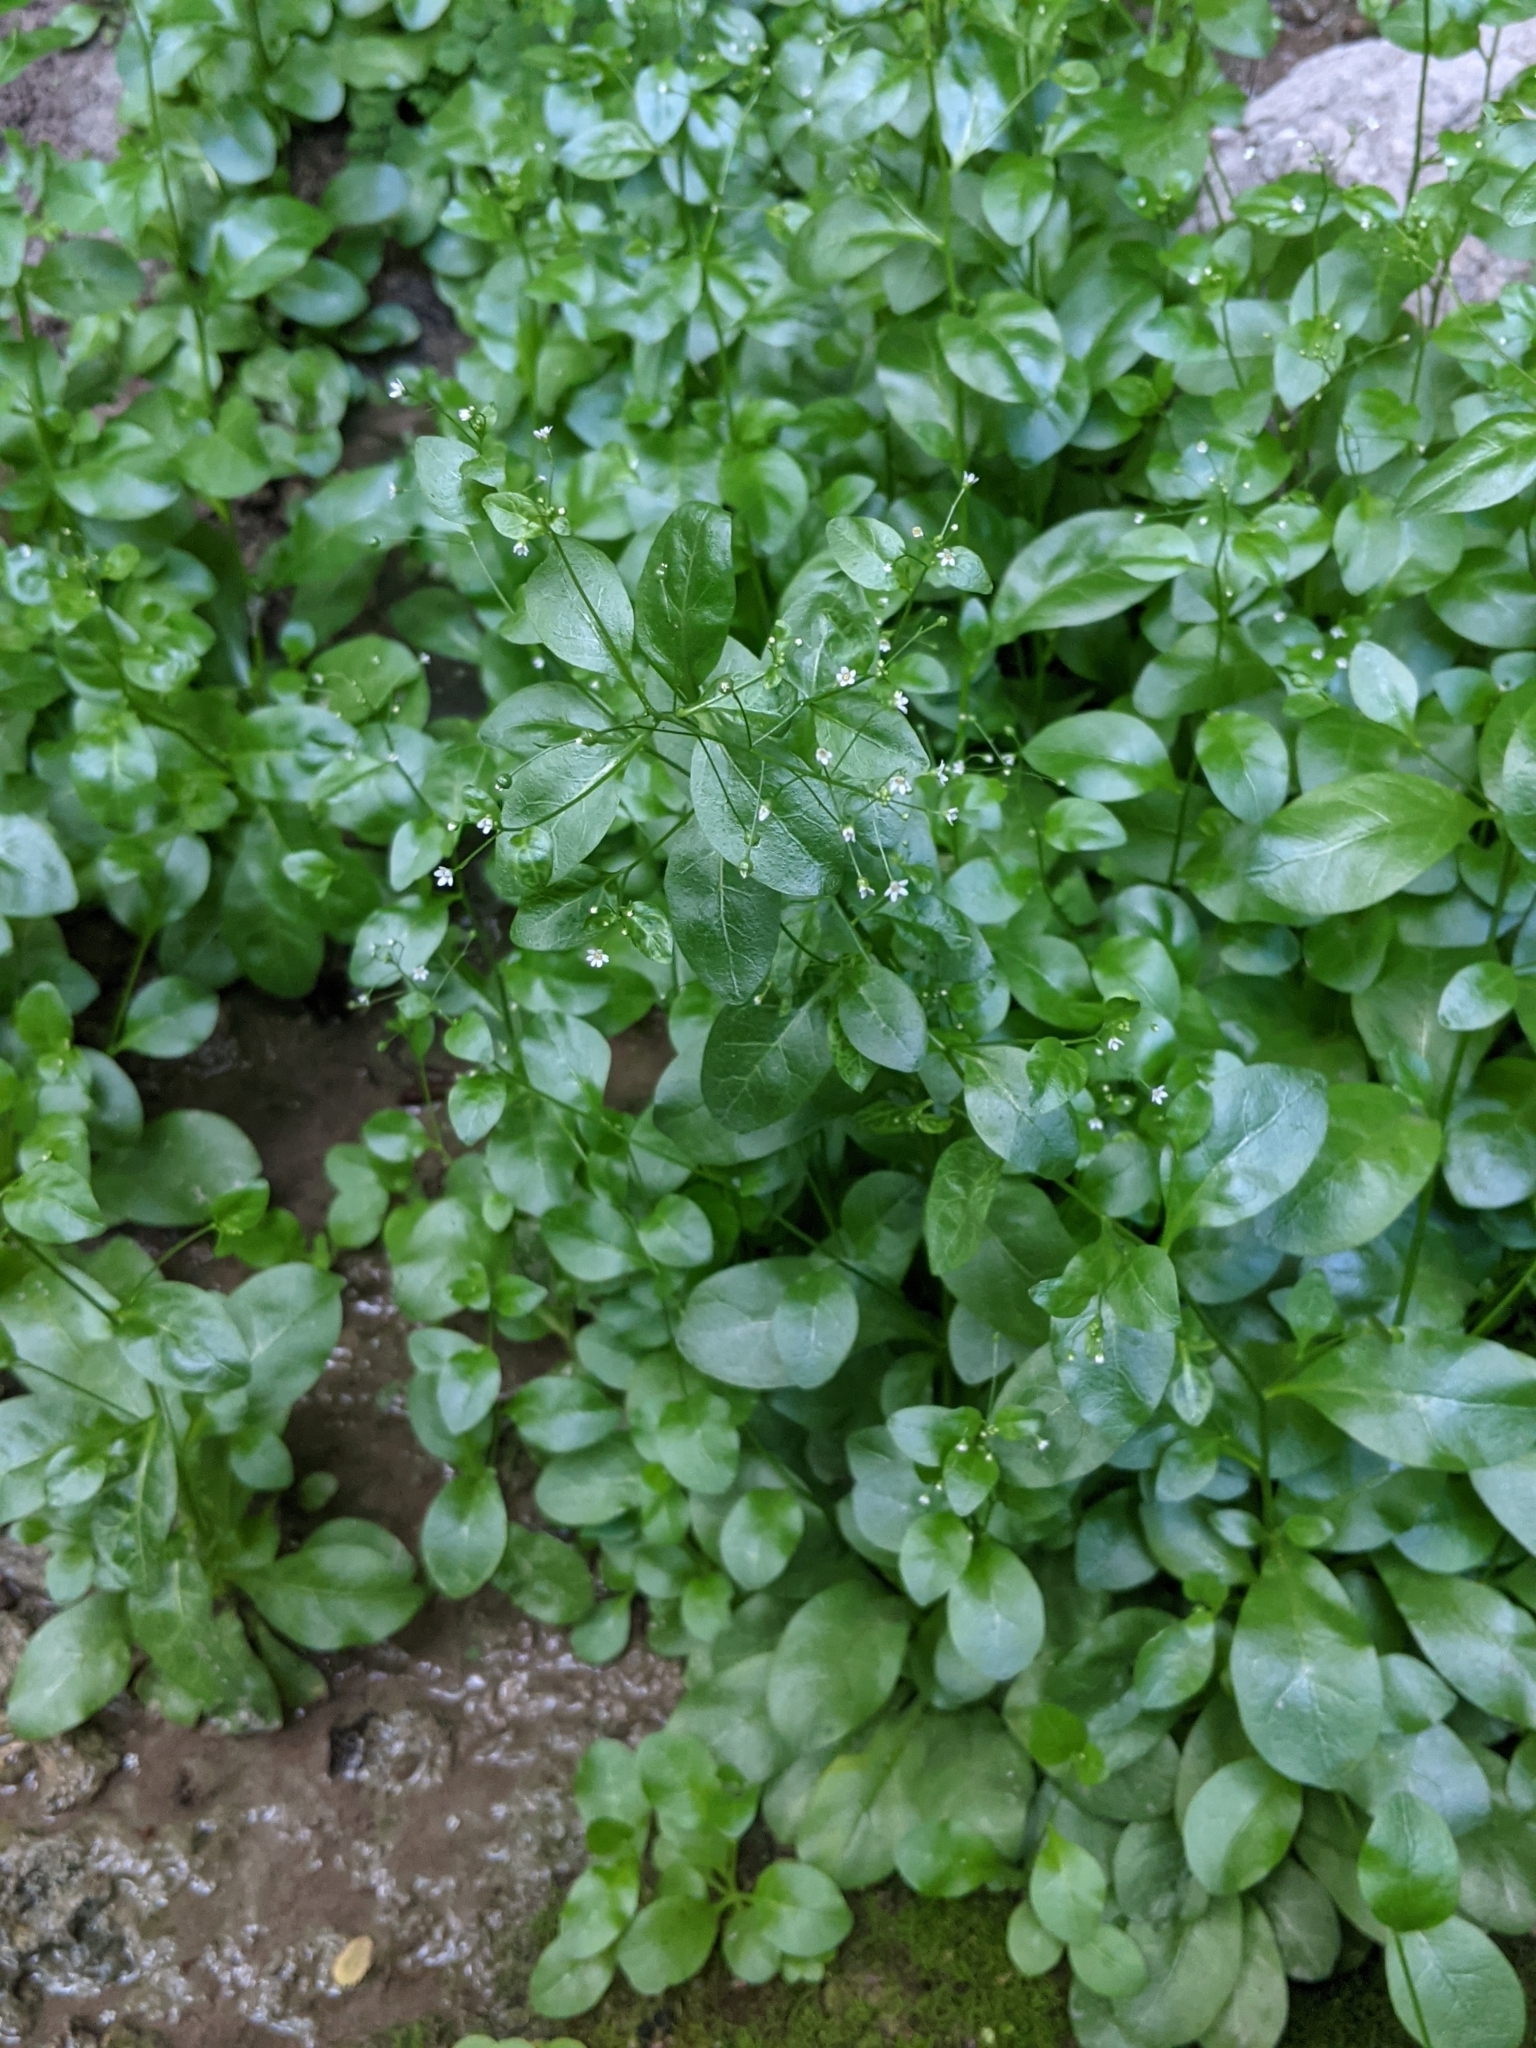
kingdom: Plantae
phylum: Tracheophyta
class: Magnoliopsida
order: Ericales
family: Primulaceae
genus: Samolus
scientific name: Samolus parviflorus
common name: False water pimpernel
